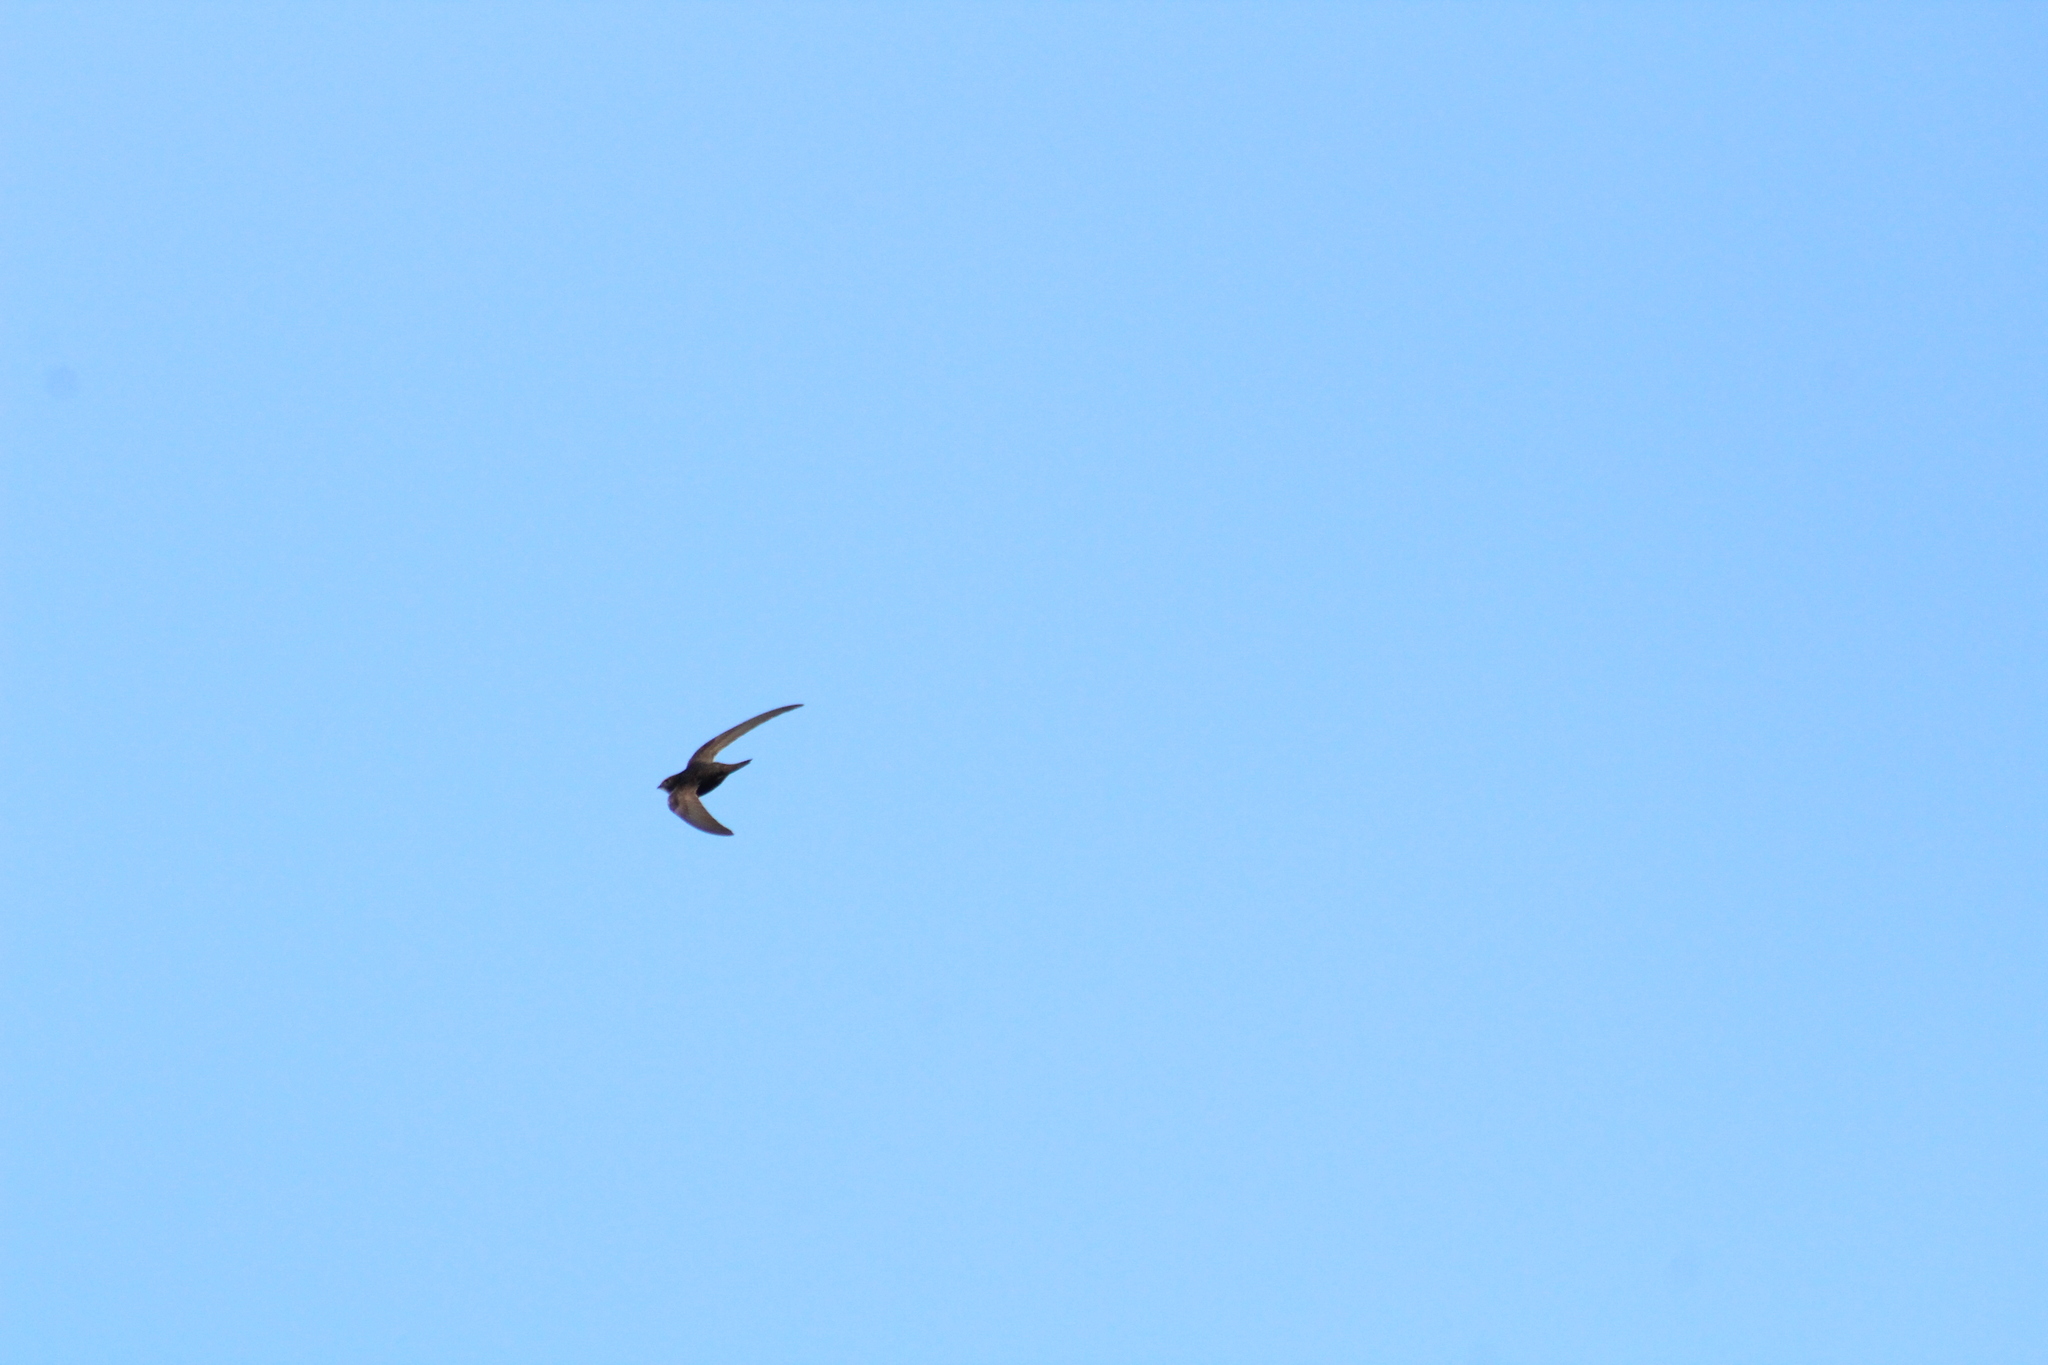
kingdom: Animalia
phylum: Chordata
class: Aves
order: Apodiformes
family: Apodidae
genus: Apus
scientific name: Apus apus
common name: Common swift
